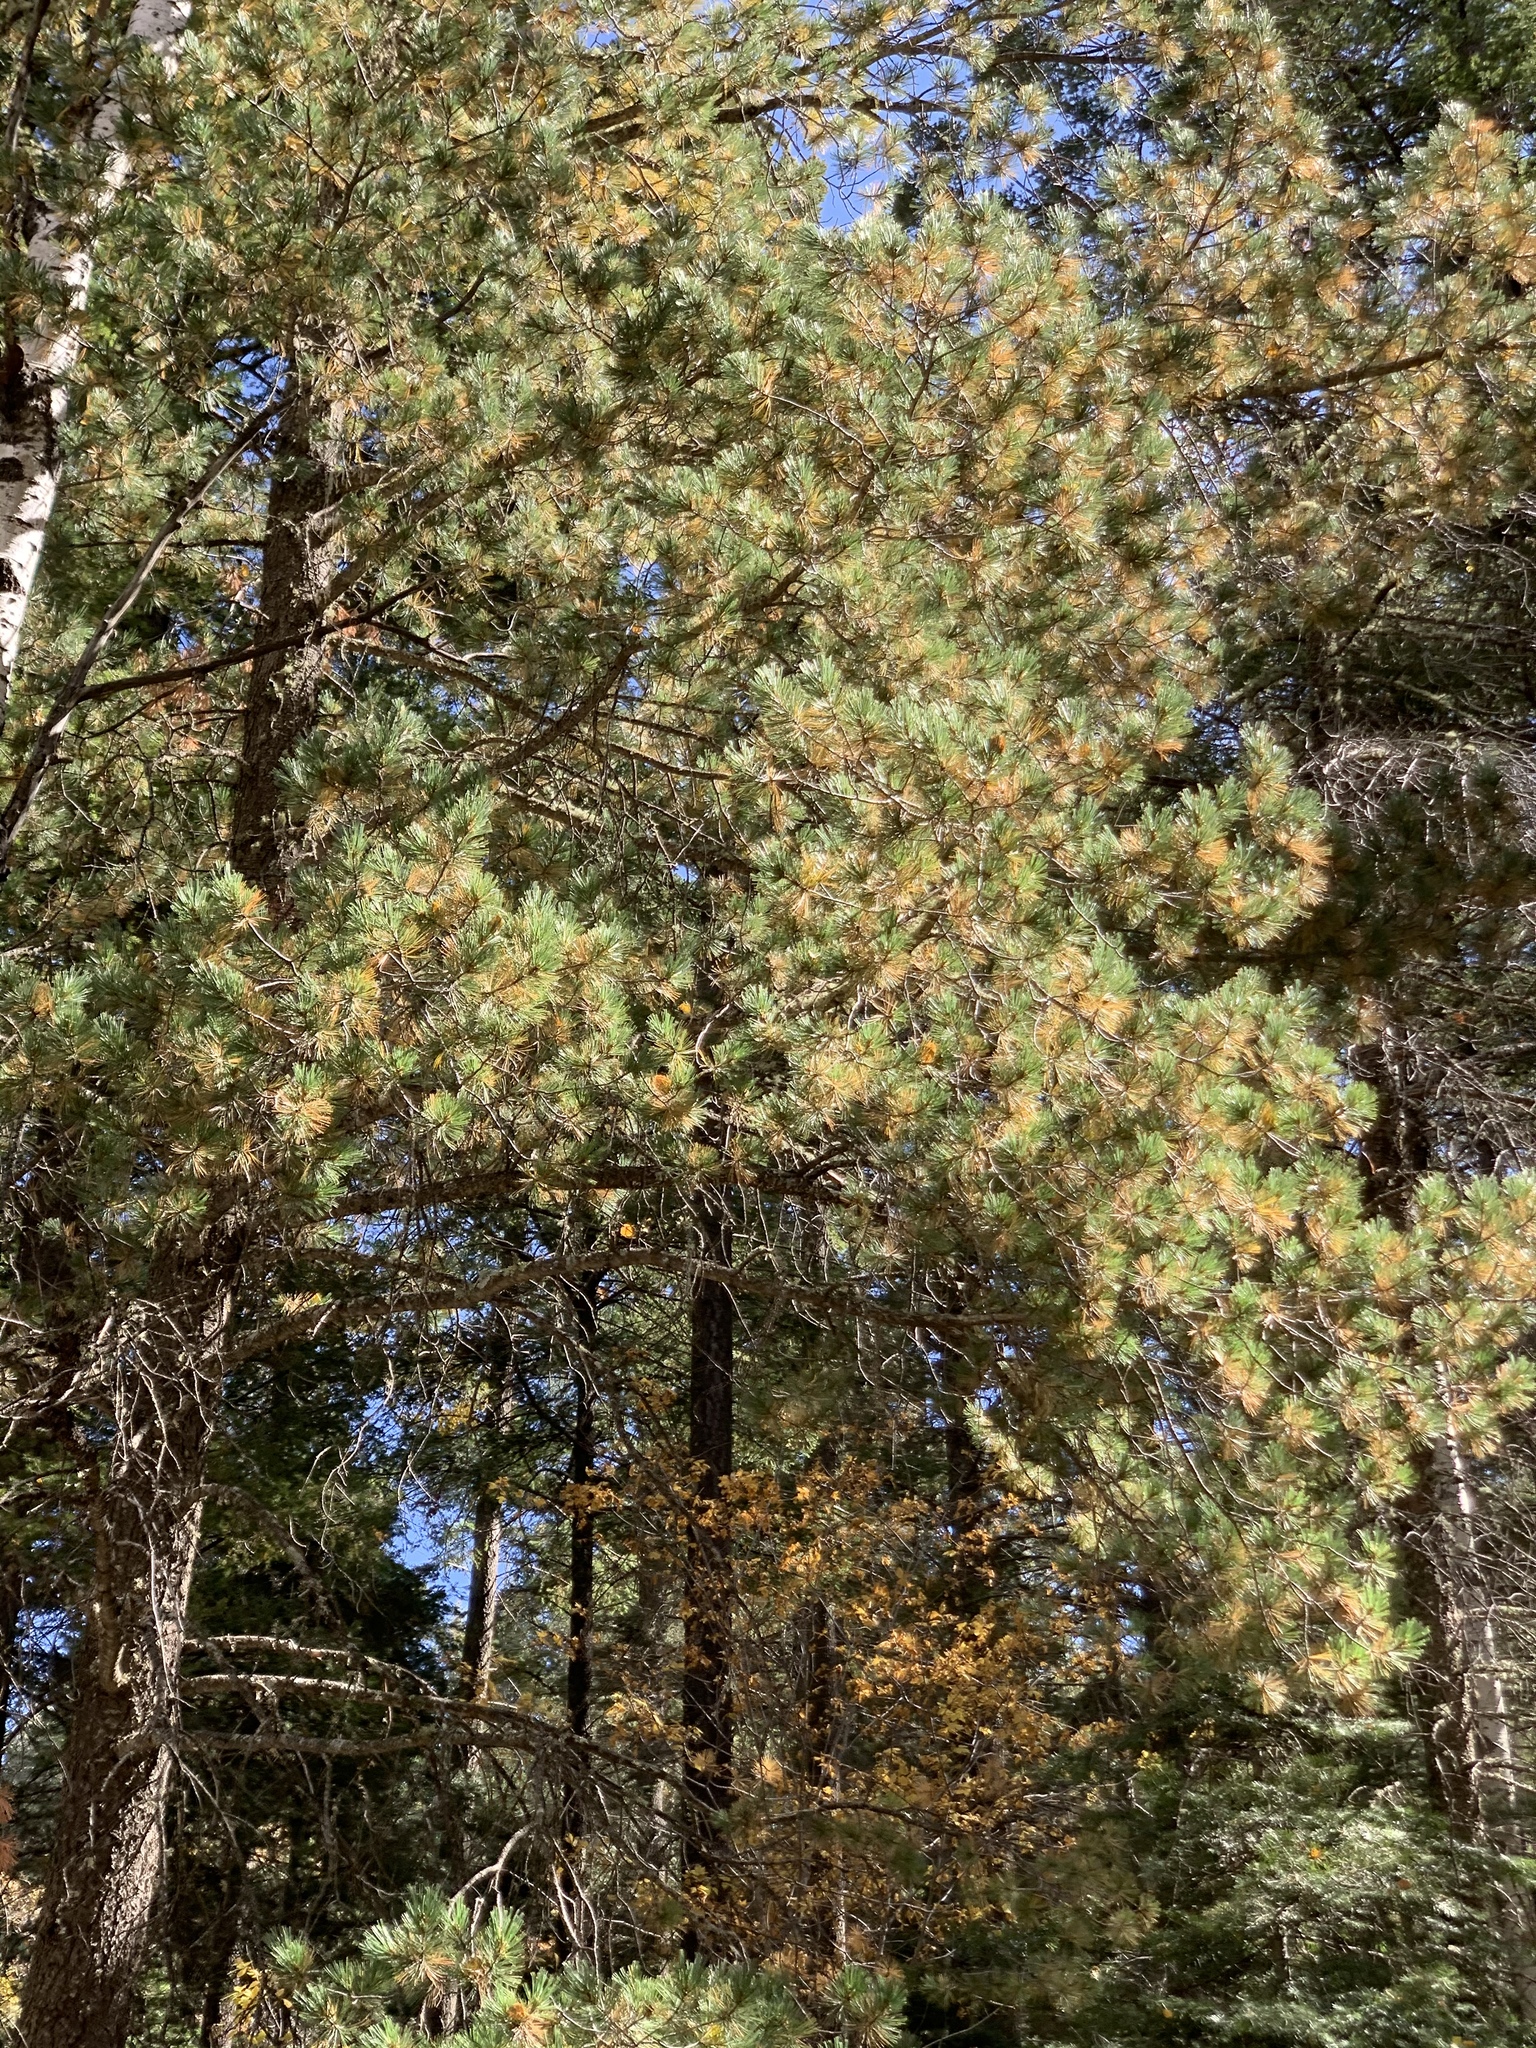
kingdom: Plantae
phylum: Tracheophyta
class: Pinopsida
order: Pinales
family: Pinaceae
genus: Pinus
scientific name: Pinus strobiformis
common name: Southwestern white pine
